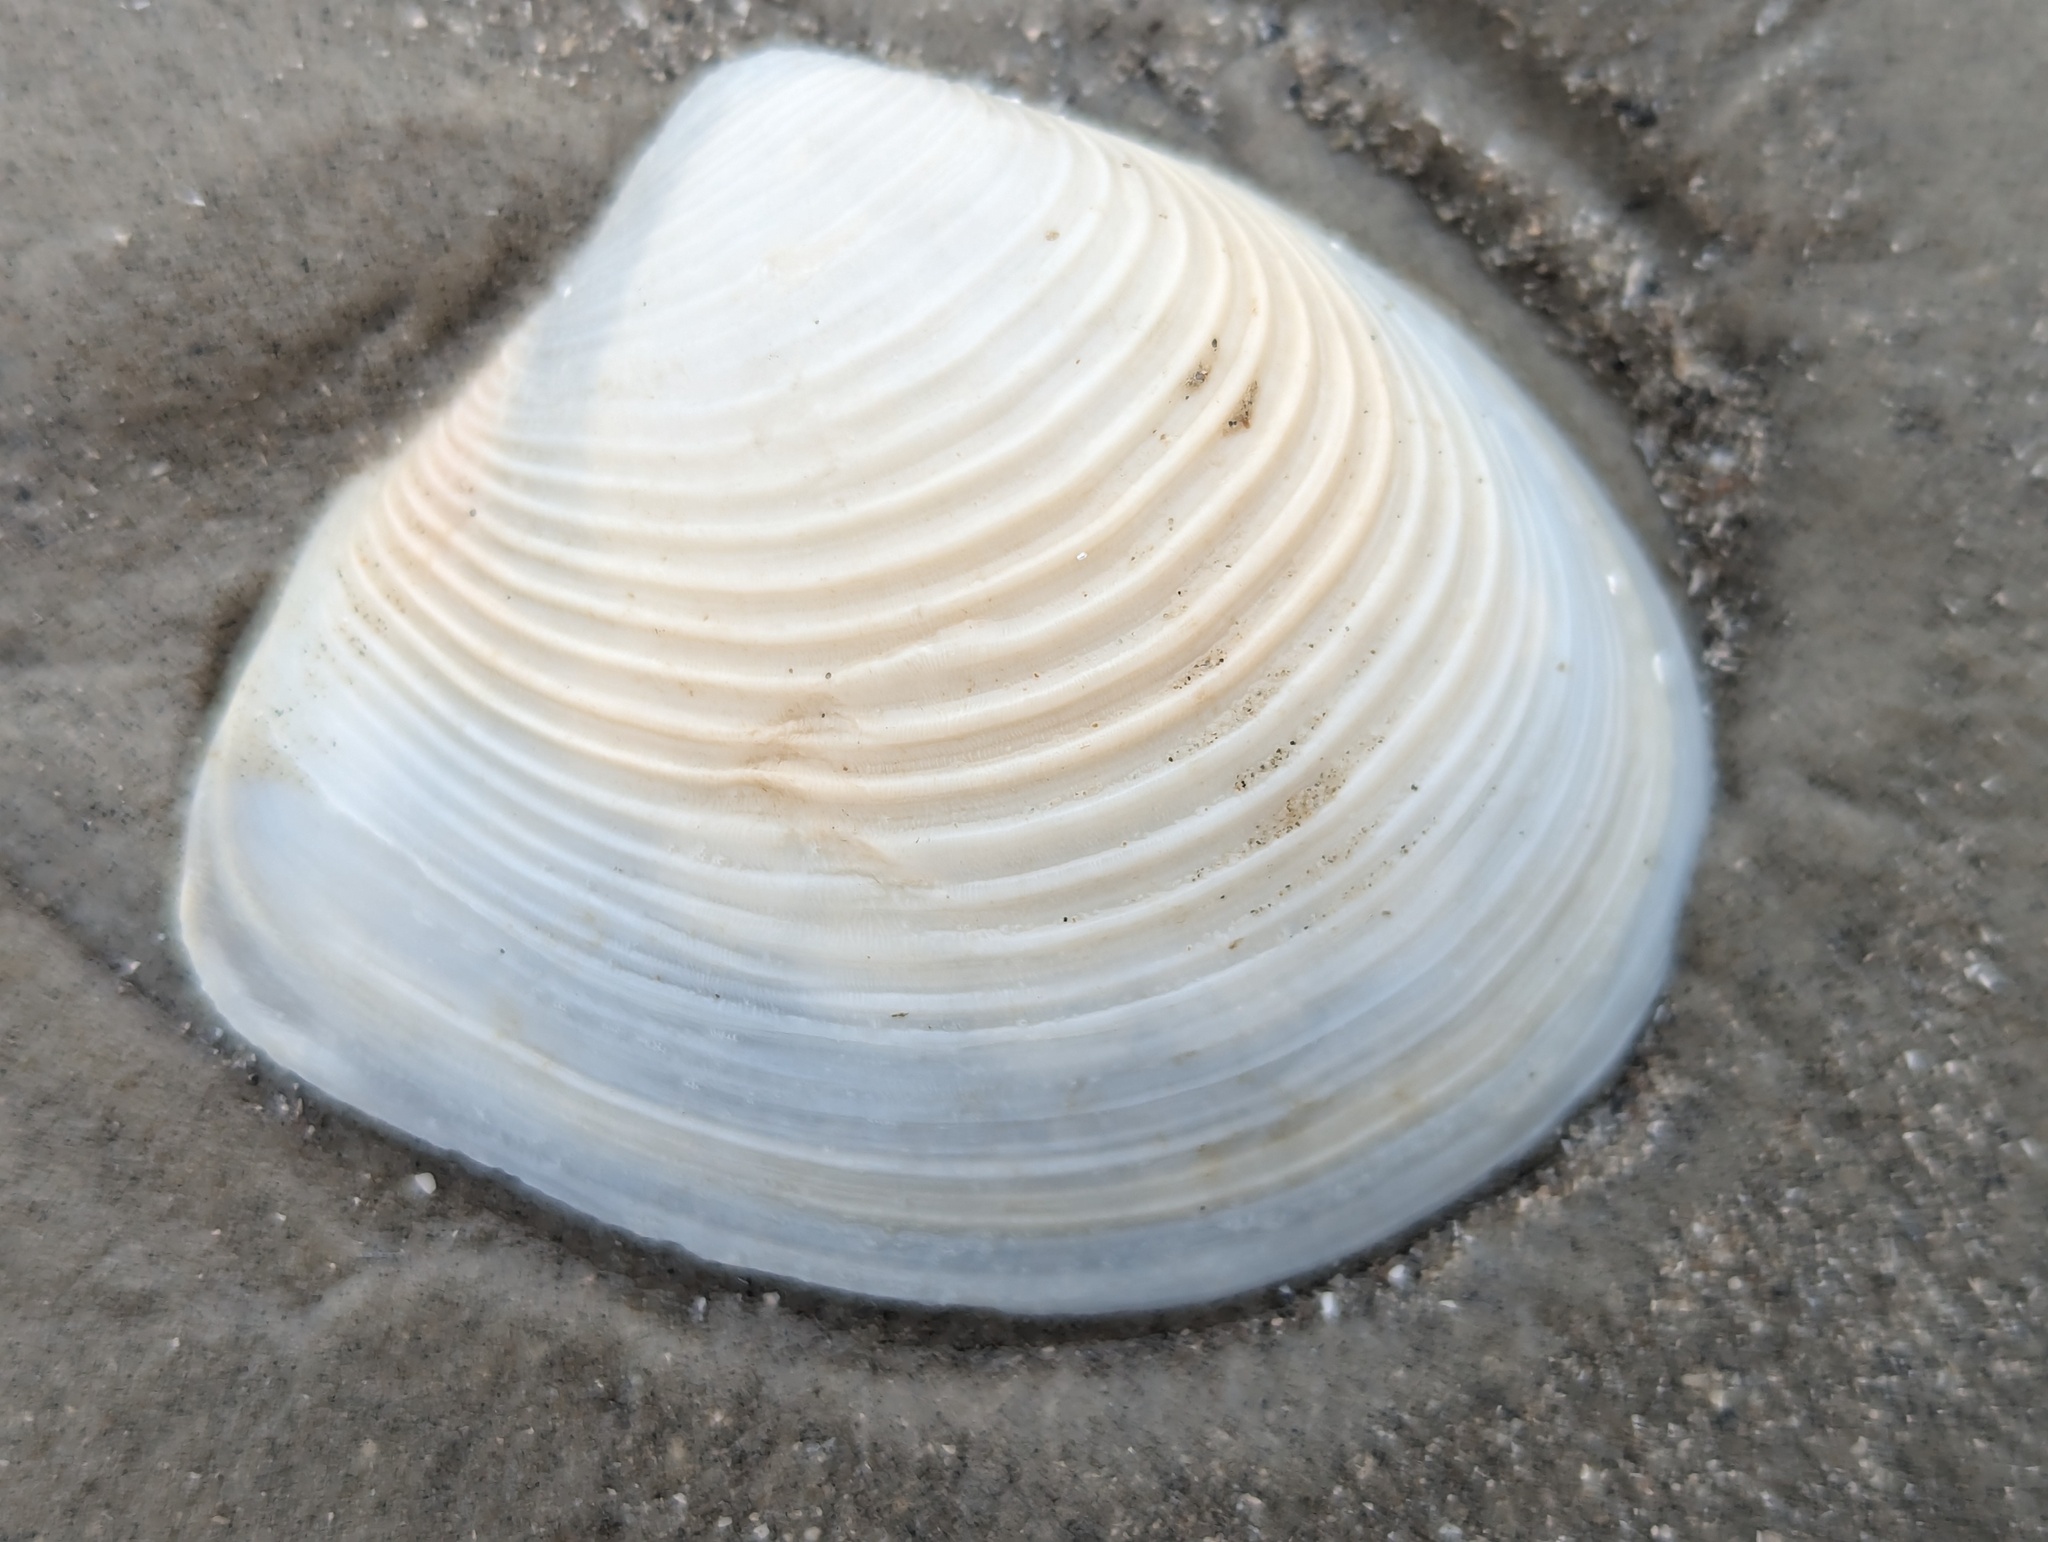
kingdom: Animalia
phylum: Mollusca
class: Bivalvia
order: Venerida
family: Anatinellidae
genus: Raeta
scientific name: Raeta plicatella
